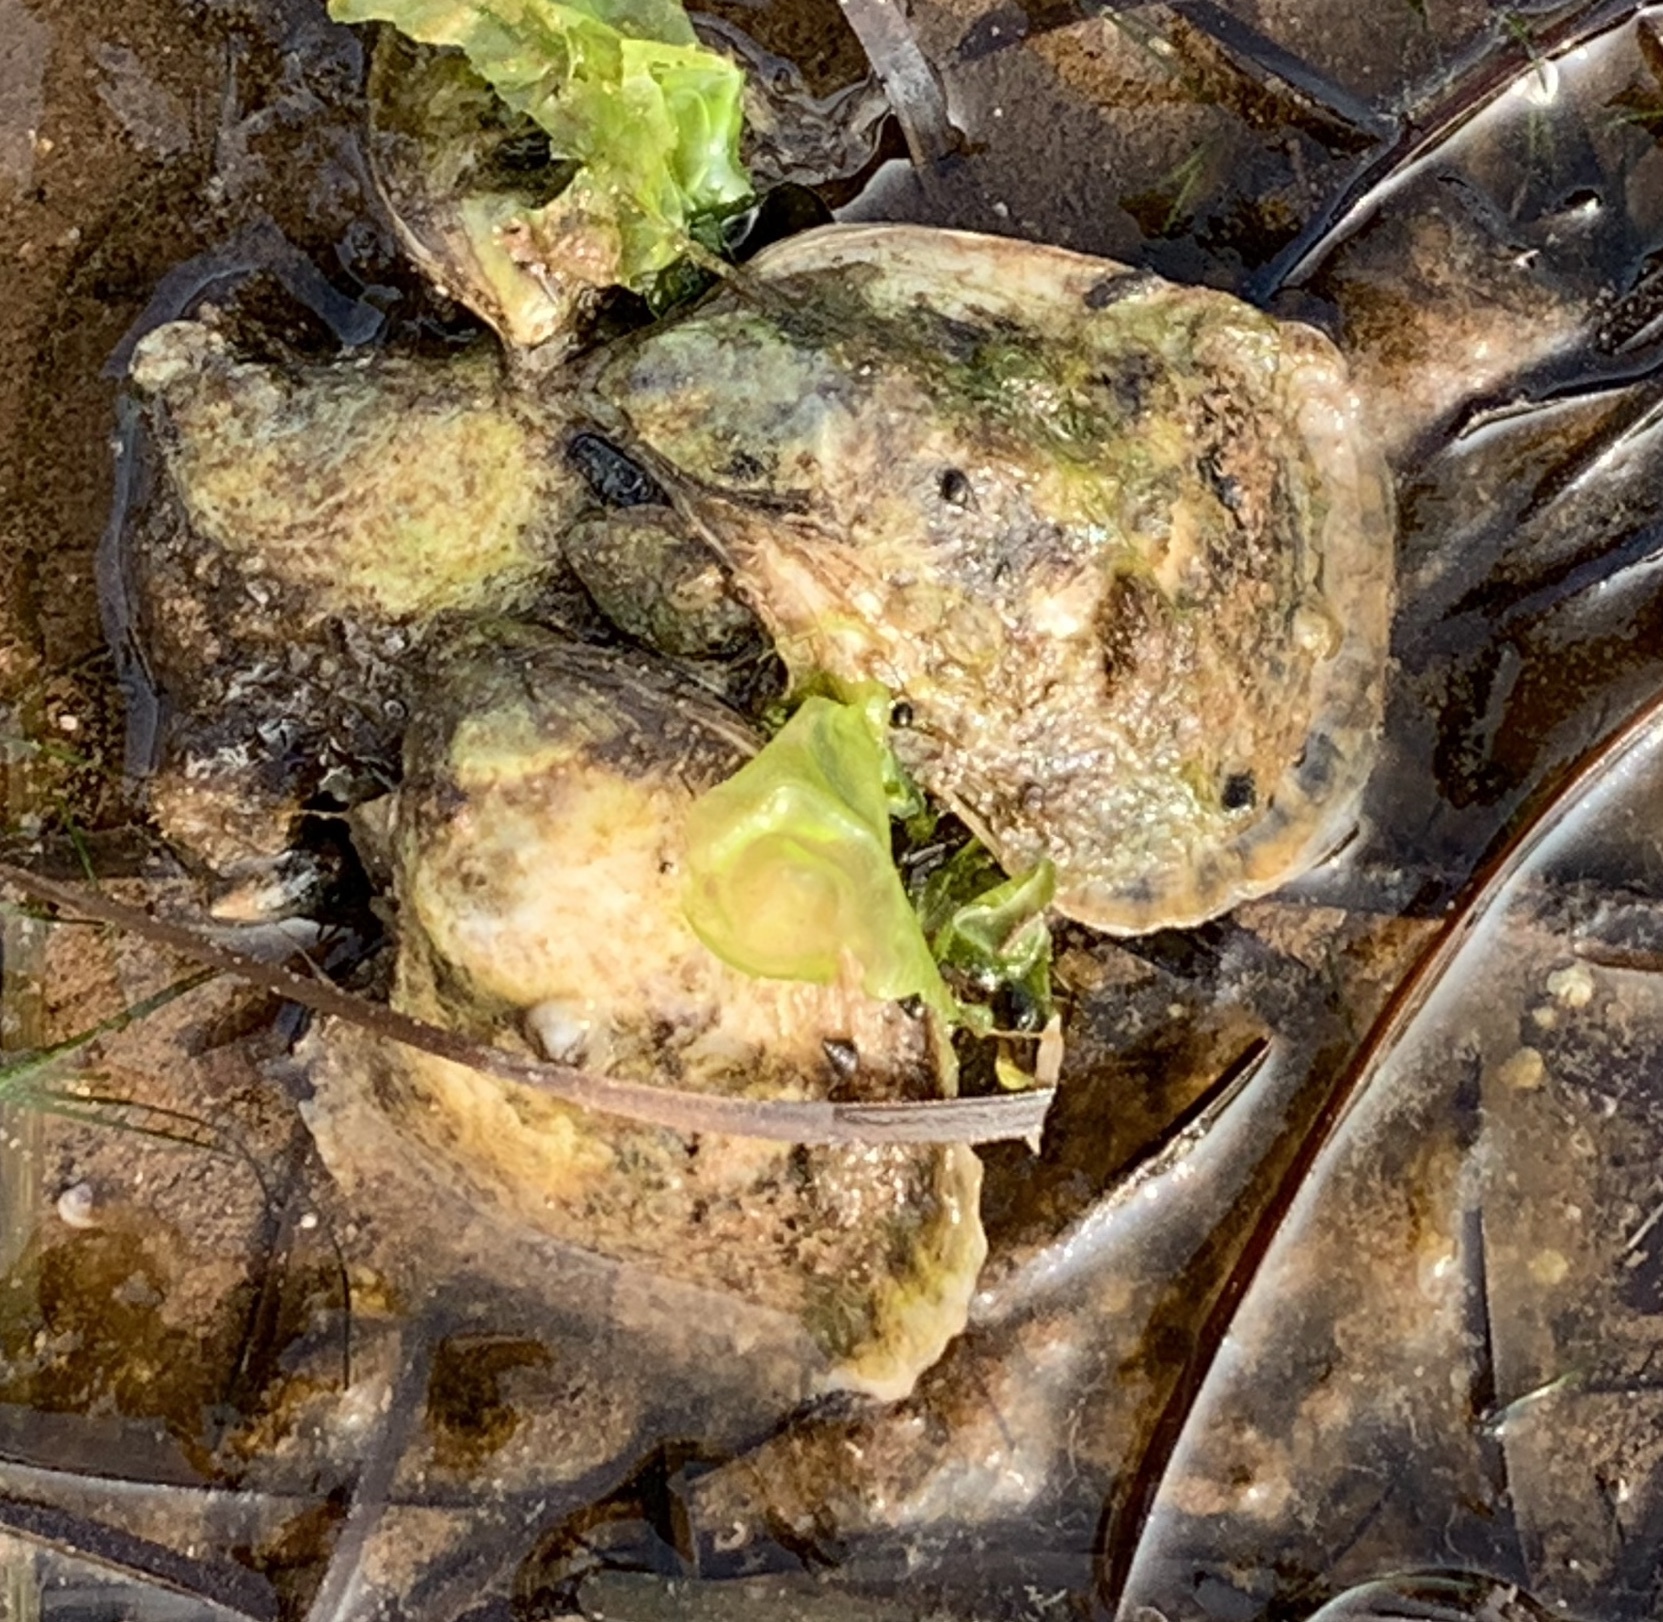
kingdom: Animalia
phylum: Mollusca
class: Bivalvia
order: Ostreida
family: Ostreidae
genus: Crassostrea
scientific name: Crassostrea virginica
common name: American oyster
